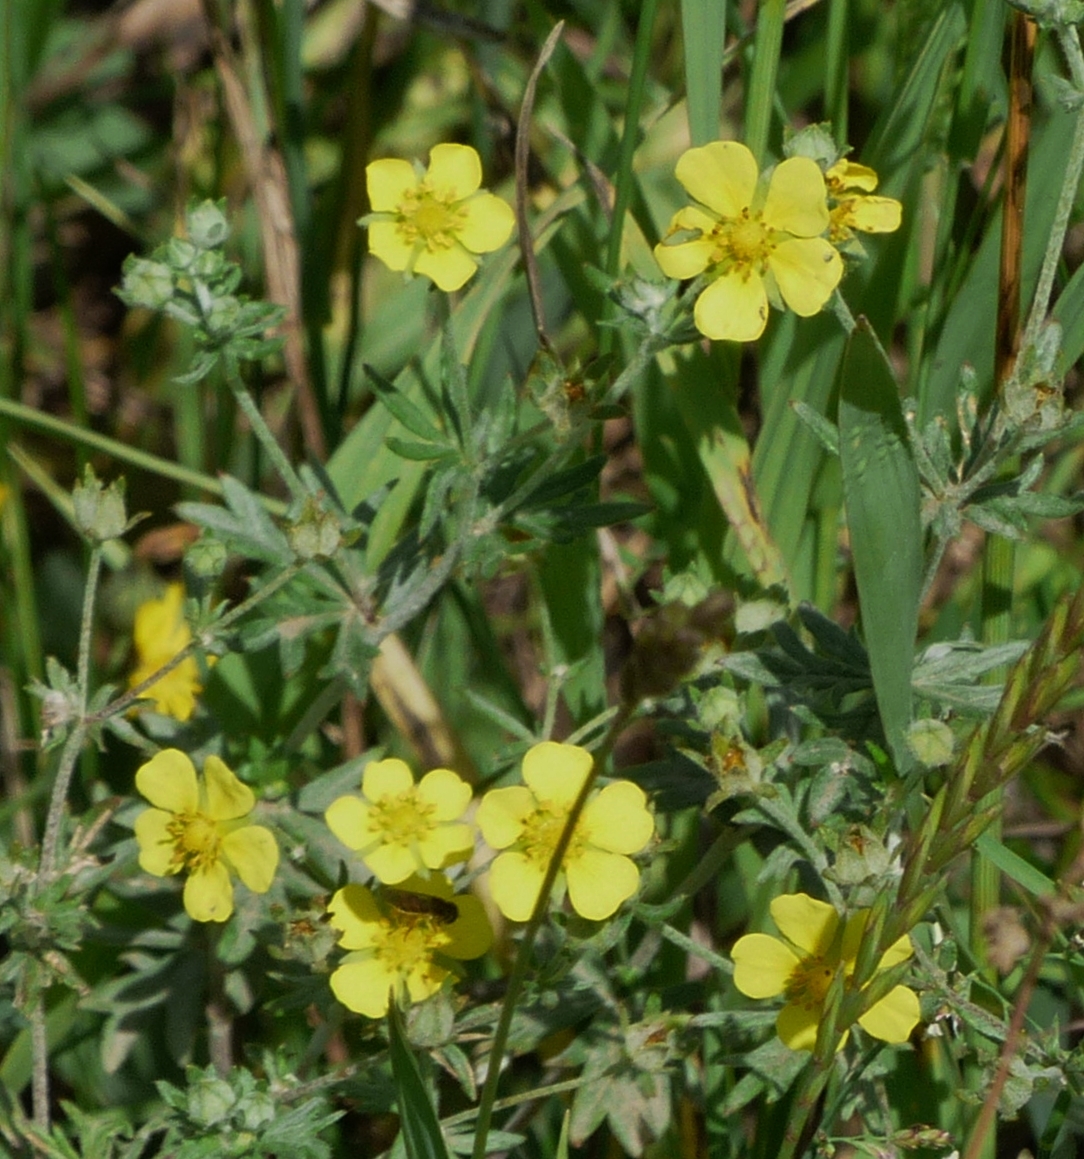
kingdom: Plantae
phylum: Tracheophyta
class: Magnoliopsida
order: Rosales
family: Rosaceae
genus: Potentilla
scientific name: Potentilla argentea
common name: Hoary cinquefoil
